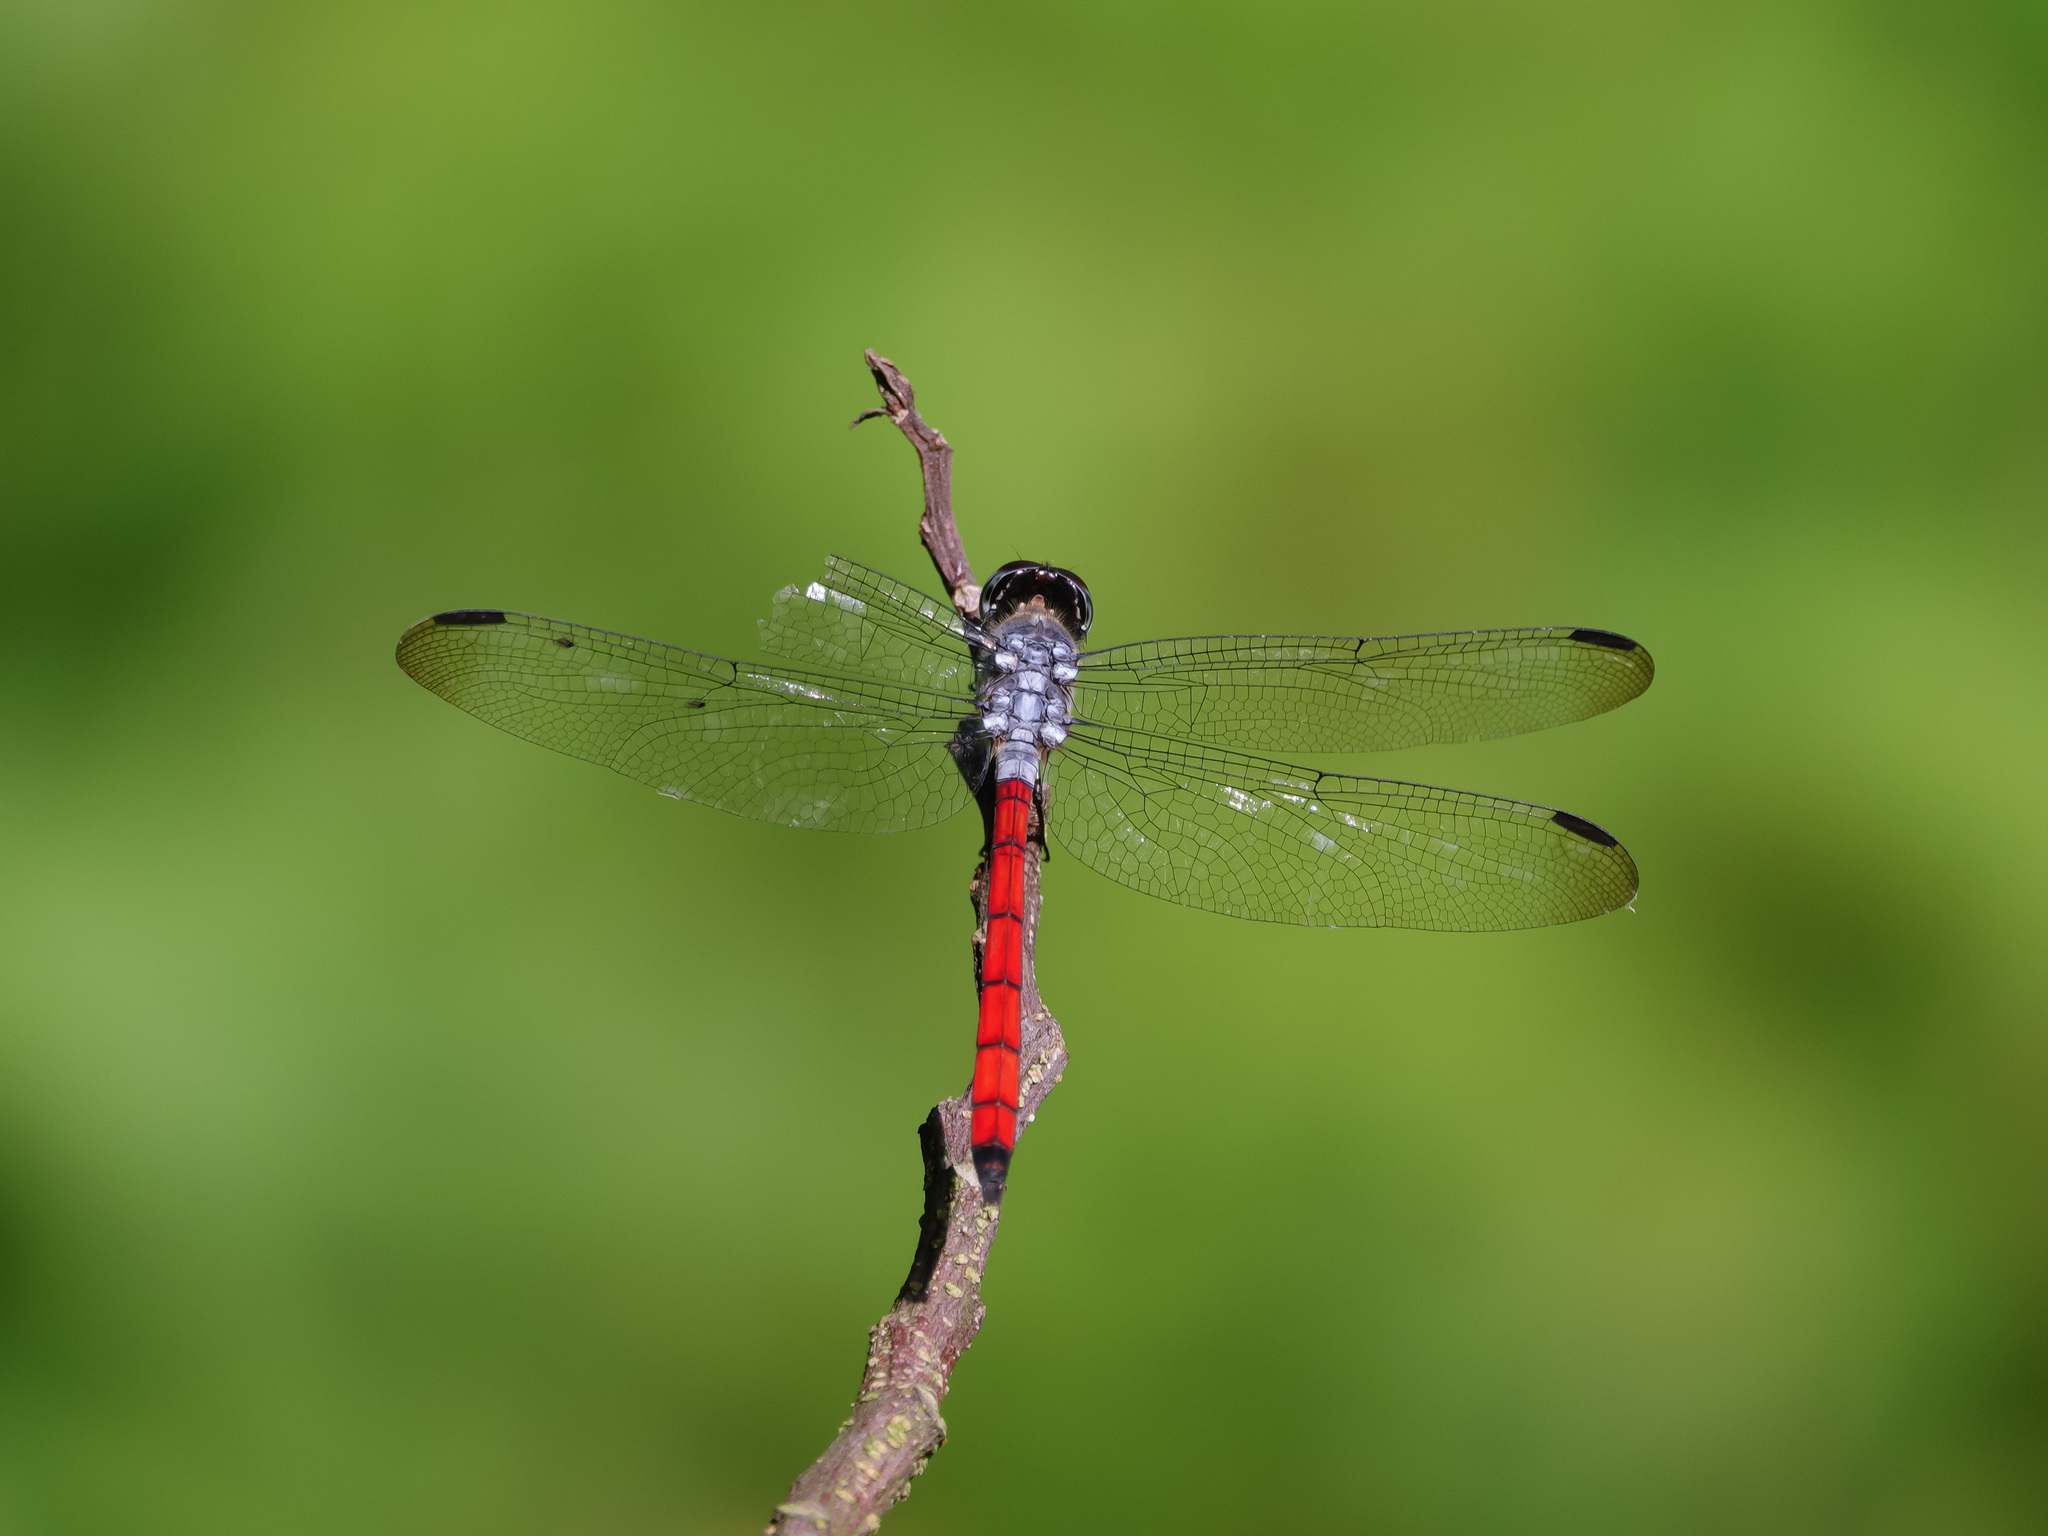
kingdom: Animalia
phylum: Arthropoda
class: Insecta
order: Odonata
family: Libellulidae
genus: Lathrecista
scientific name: Lathrecista asiatica
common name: Scarlet grenadier
